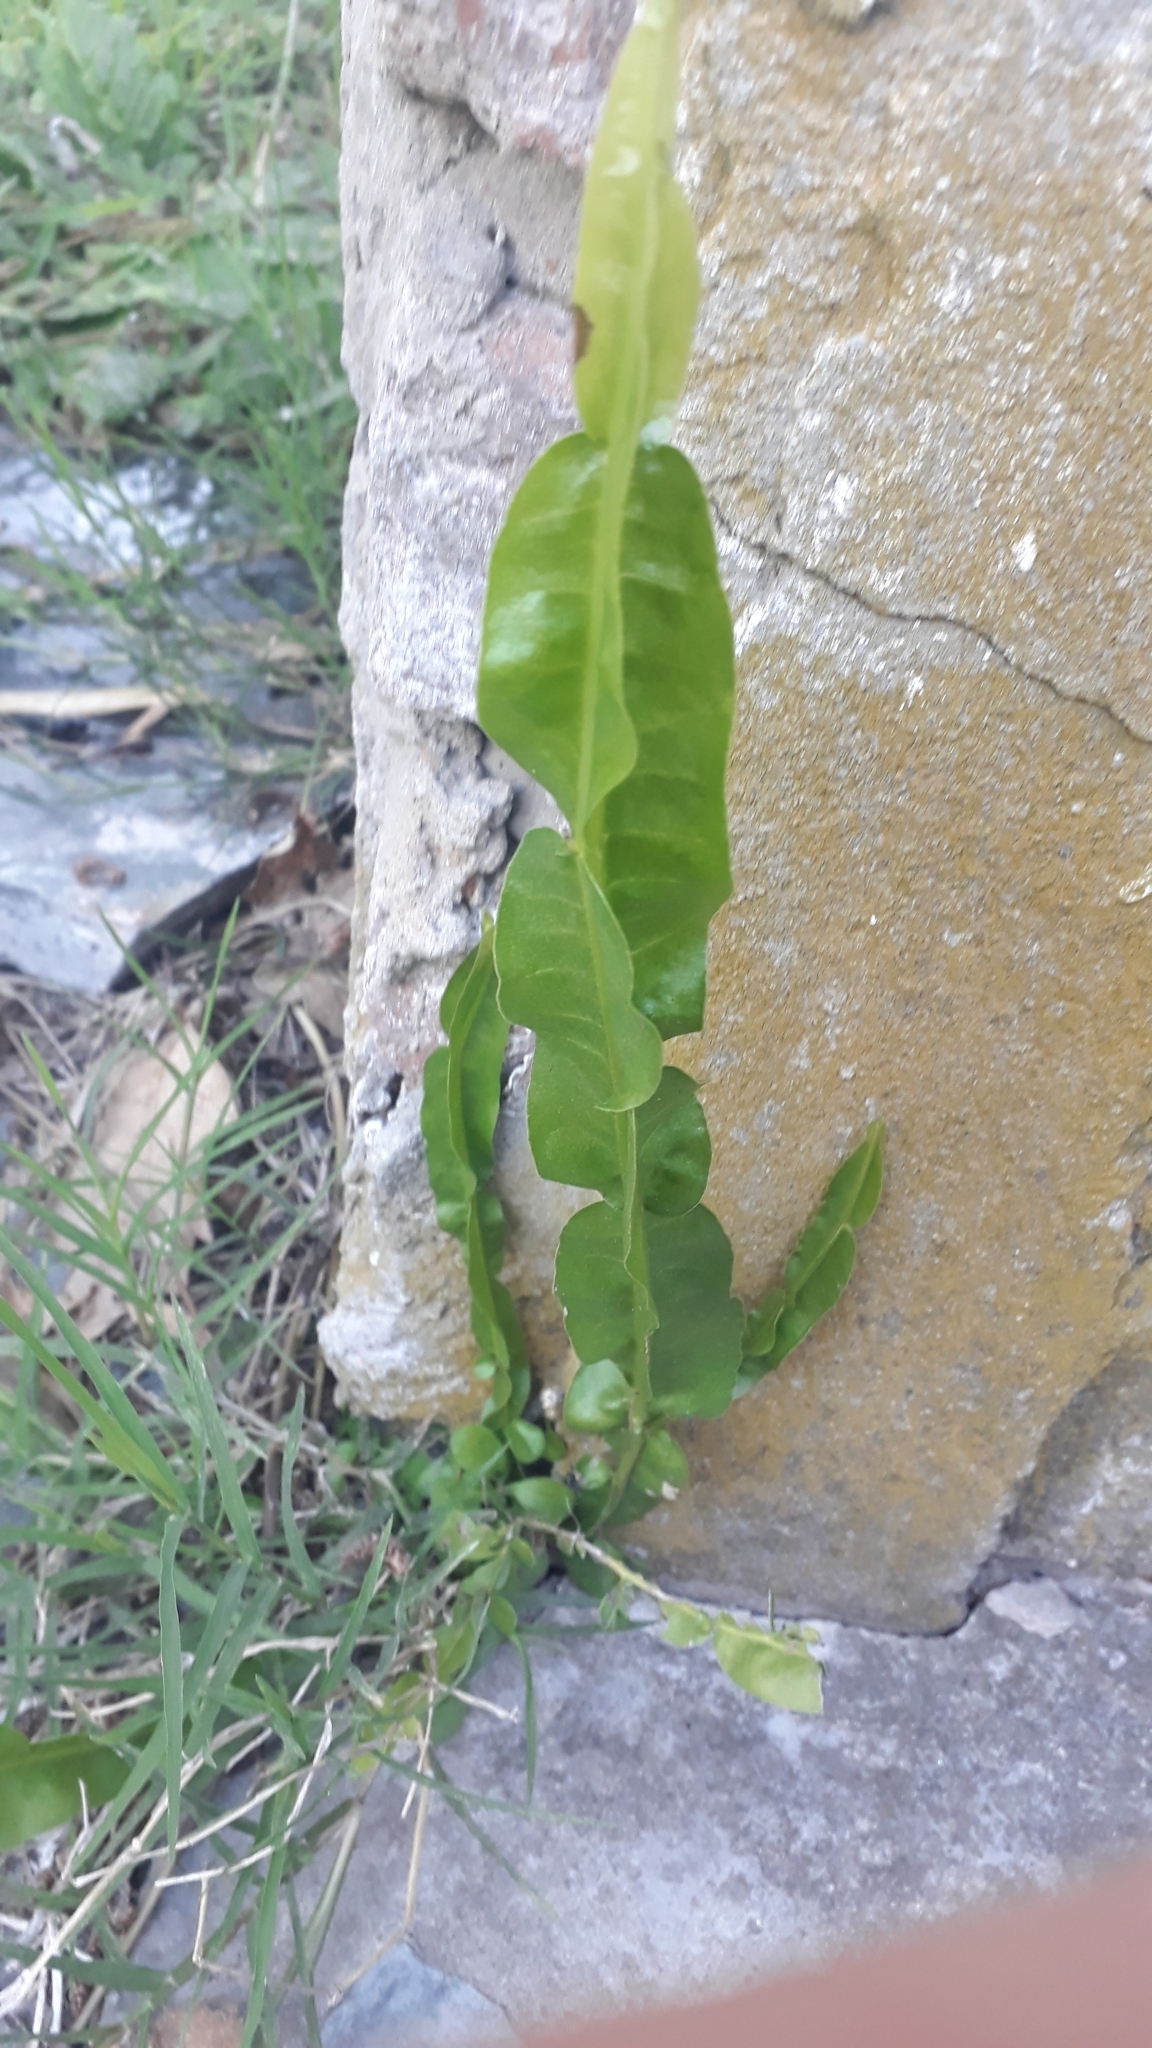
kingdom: Plantae
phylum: Tracheophyta
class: Magnoliopsida
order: Asterales
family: Asteraceae
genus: Baccharis
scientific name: Baccharis trimera
